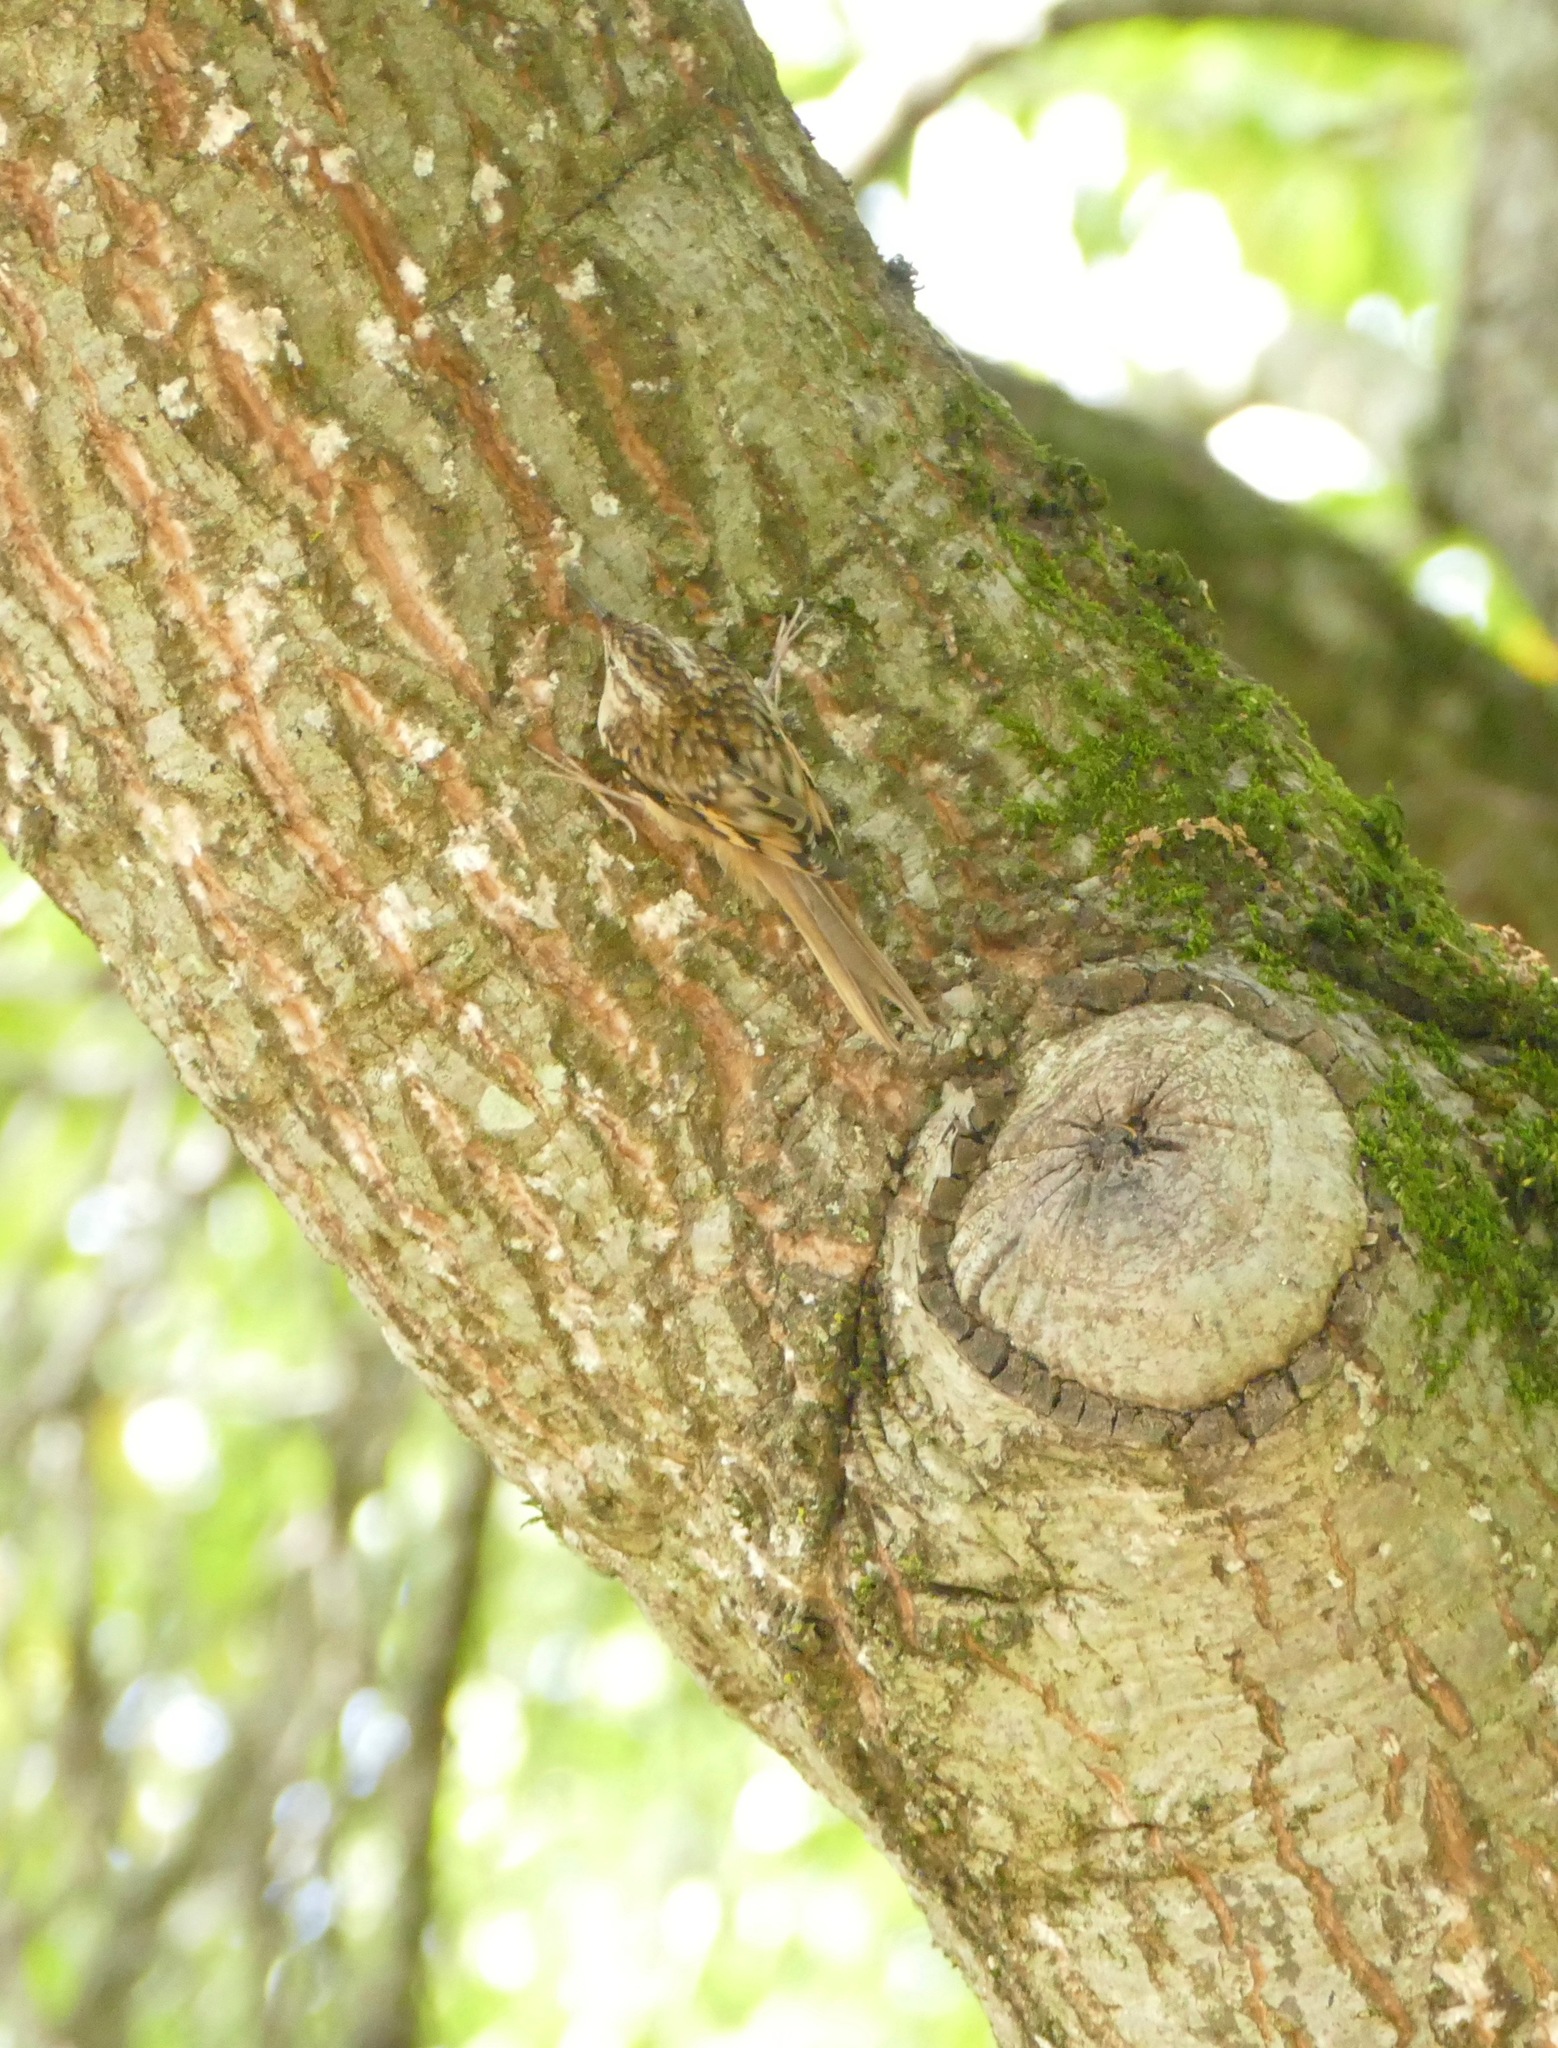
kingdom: Animalia
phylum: Chordata
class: Aves
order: Passeriformes
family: Certhiidae
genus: Certhia
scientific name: Certhia americana
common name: Brown creeper
